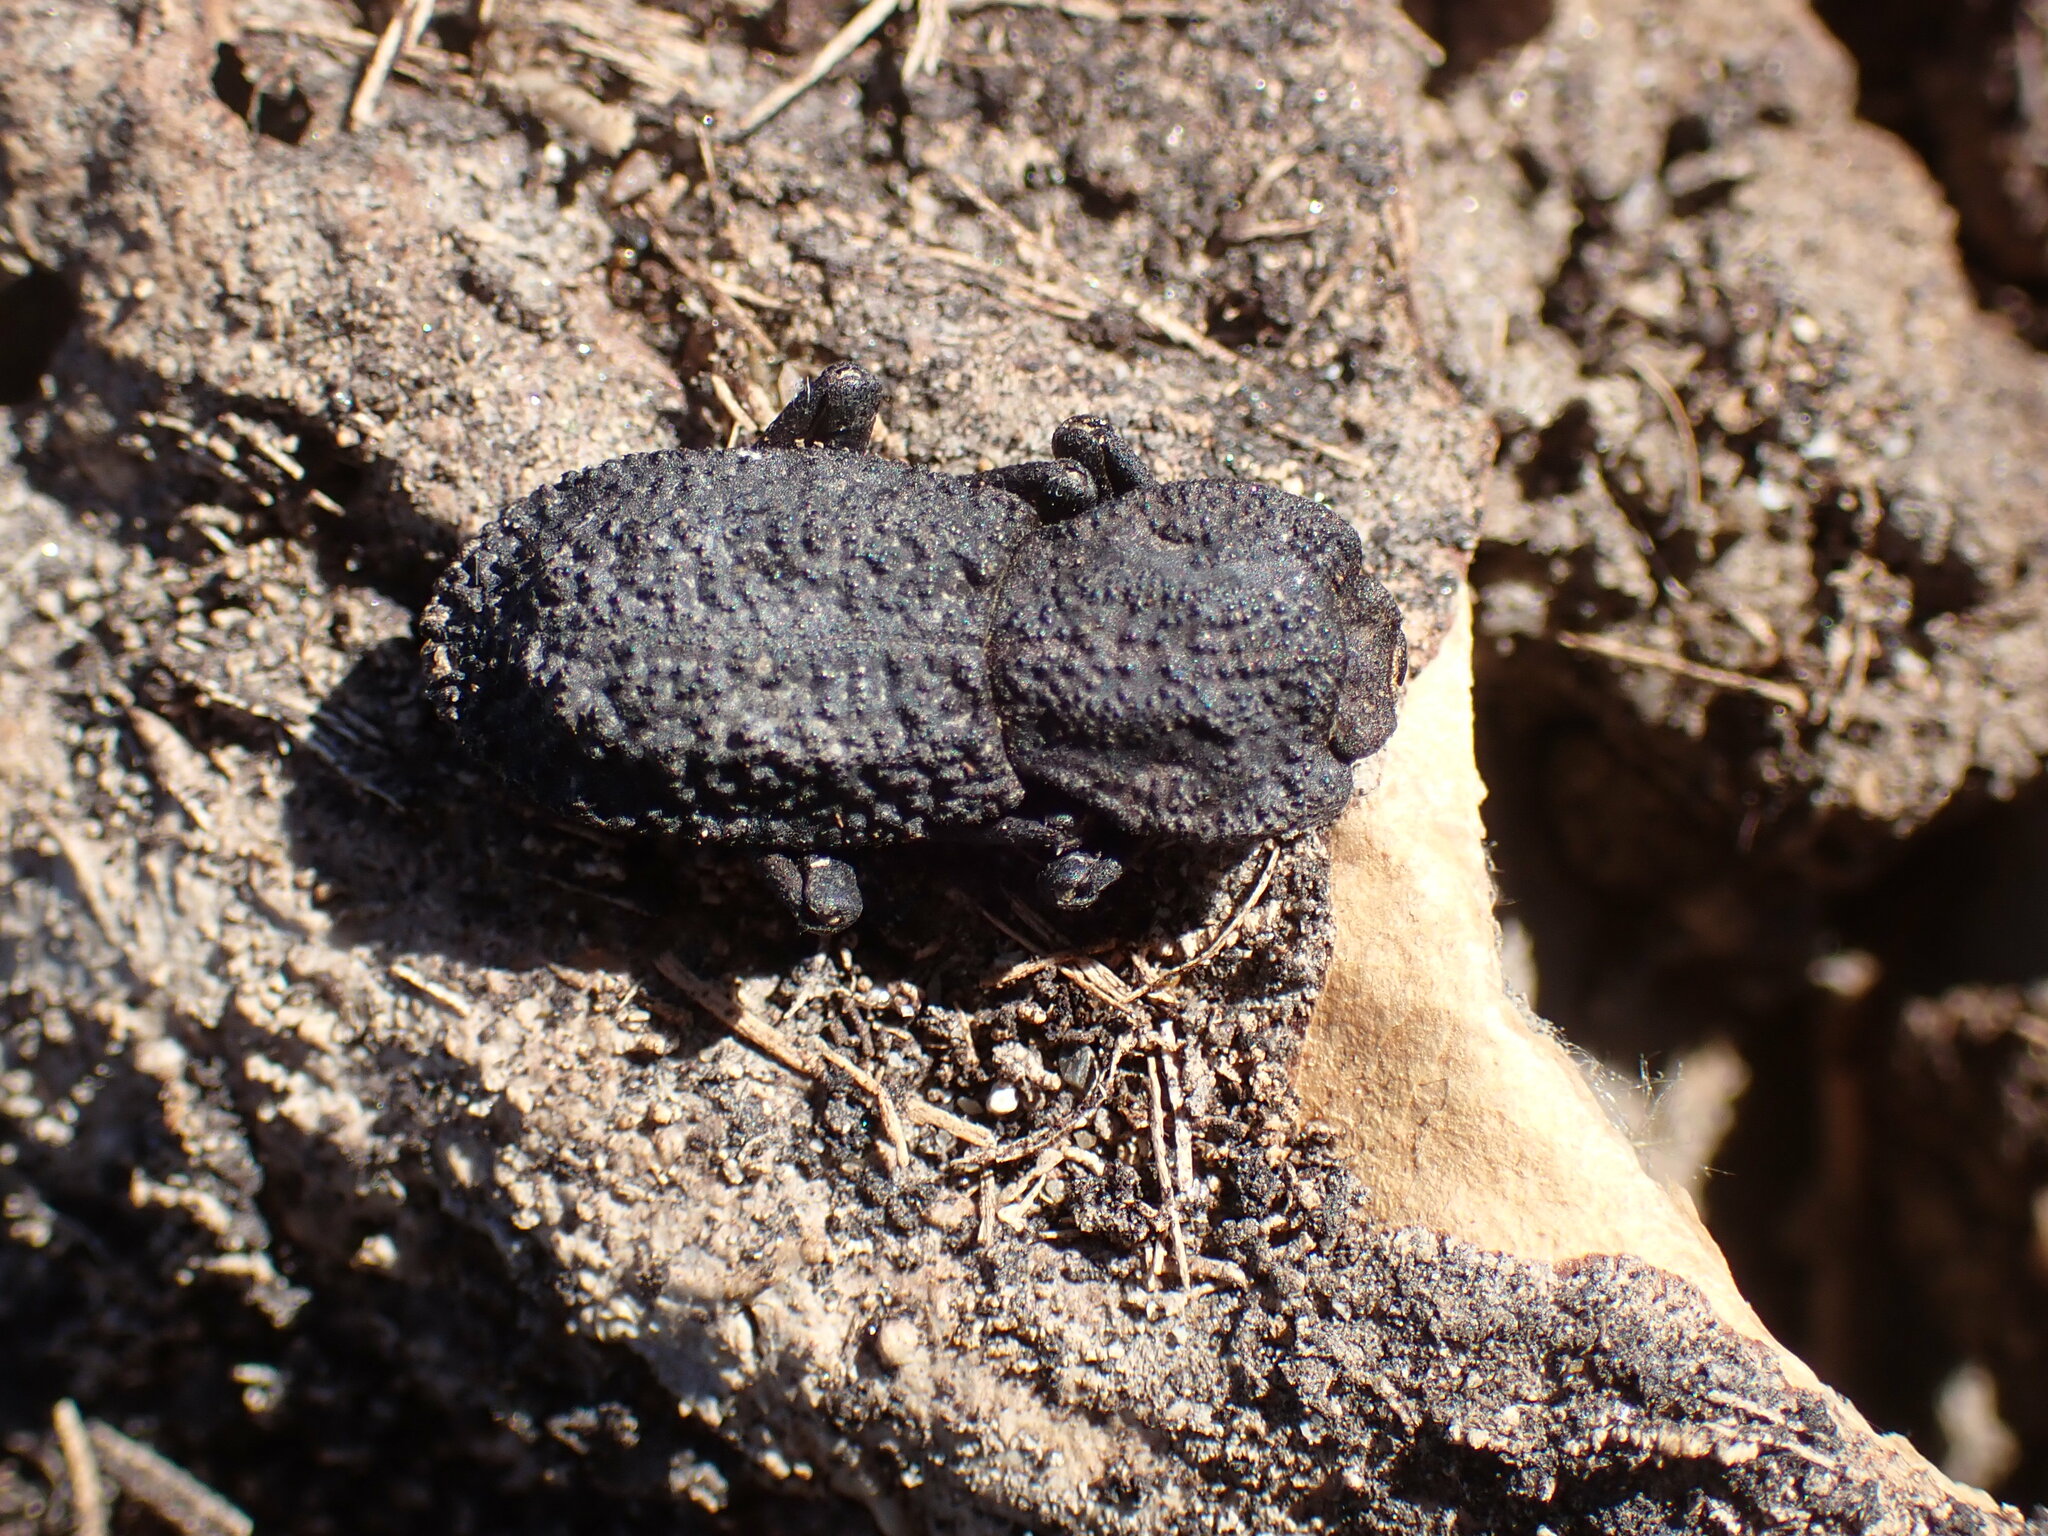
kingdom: Animalia
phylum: Arthropoda
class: Insecta
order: Coleoptera
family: Zopheridae
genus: Phloeodes
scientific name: Phloeodes diabolicus
